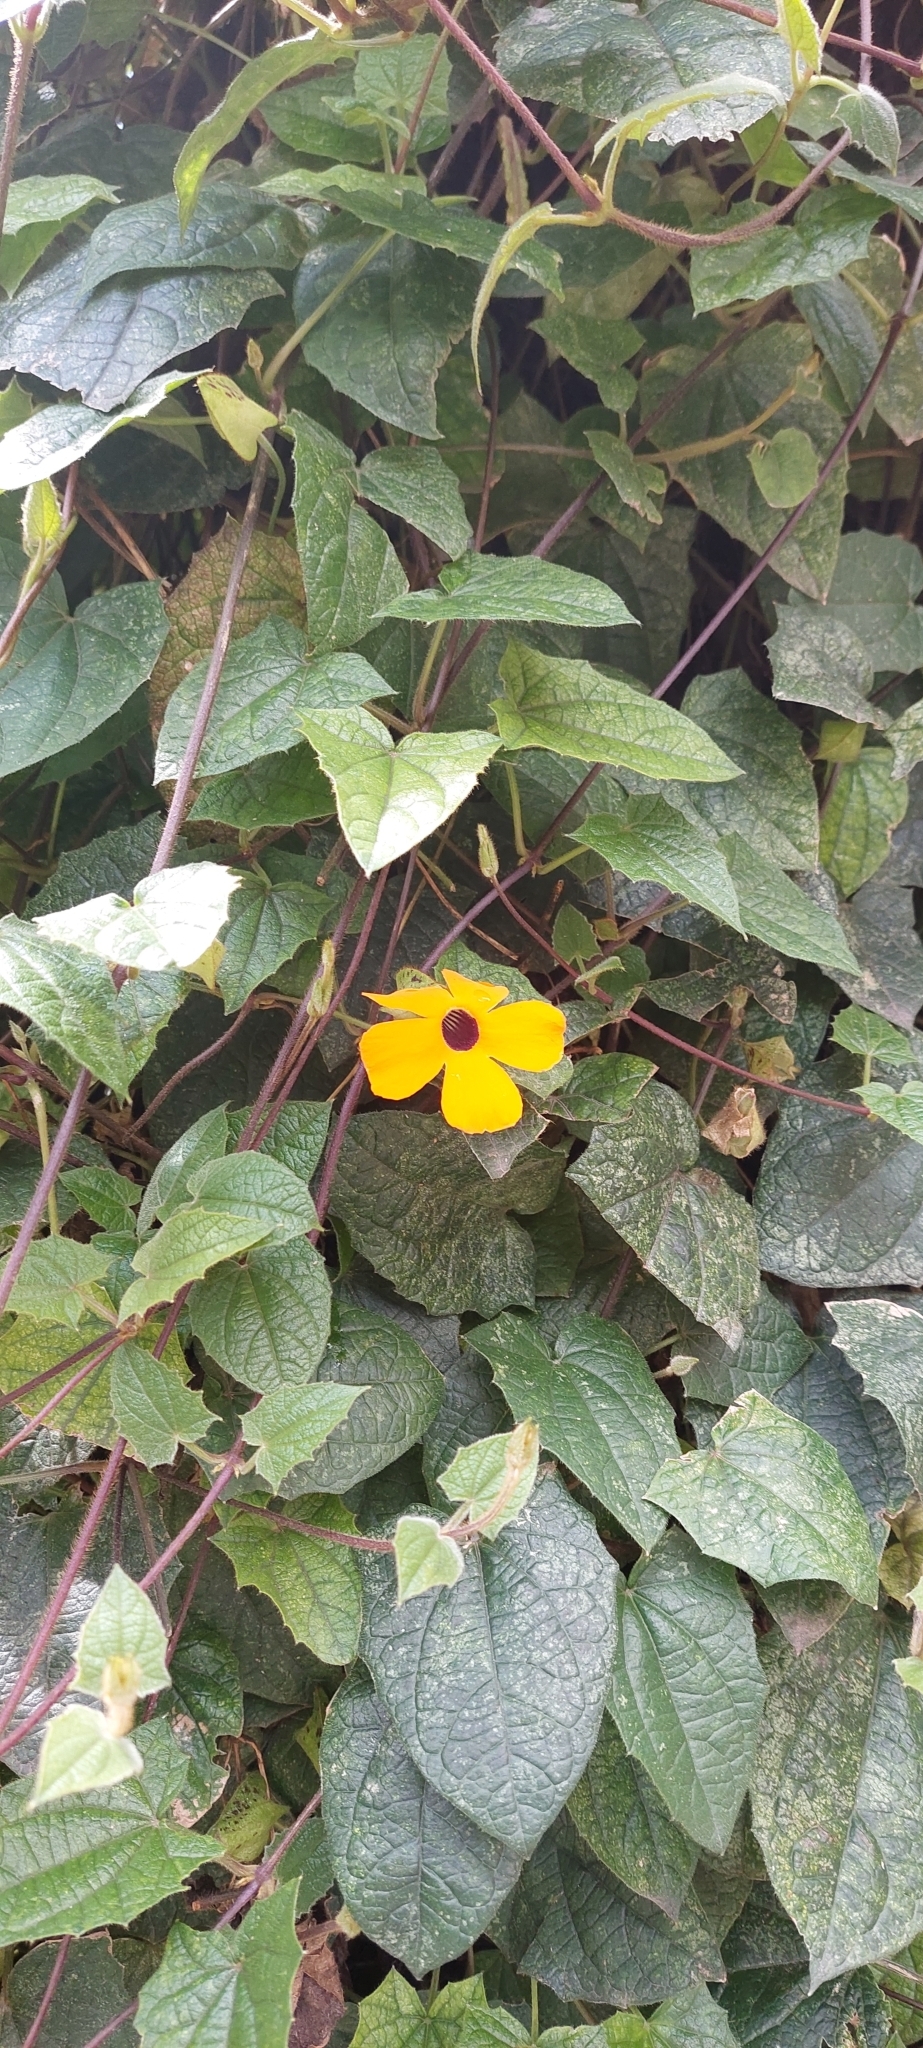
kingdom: Plantae
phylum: Tracheophyta
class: Magnoliopsida
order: Lamiales
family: Acanthaceae
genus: Thunbergia
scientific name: Thunbergia alata
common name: Blackeyed susan vine
